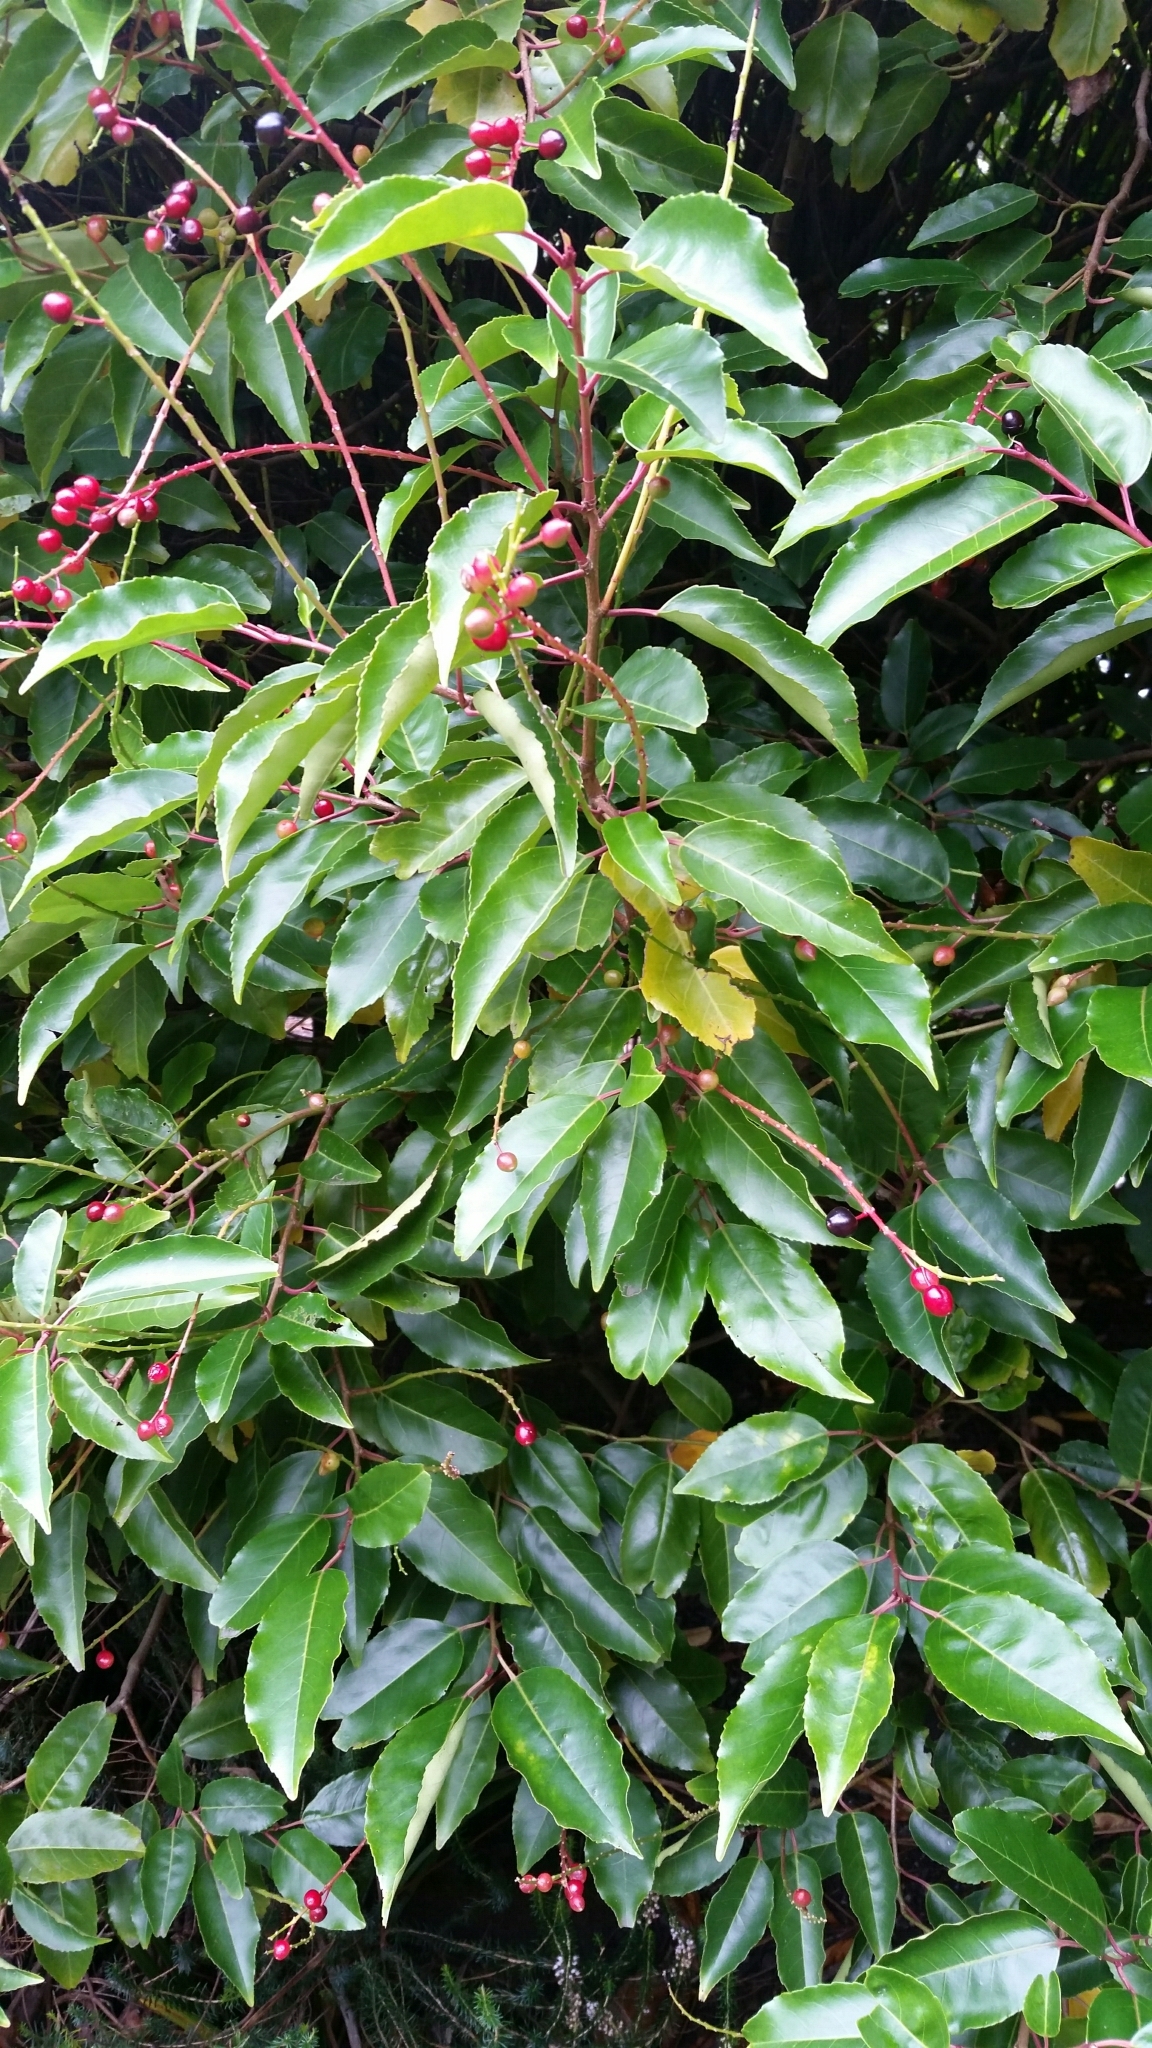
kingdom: Plantae
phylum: Tracheophyta
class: Magnoliopsida
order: Rosales
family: Rosaceae
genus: Prunus
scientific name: Prunus lusitanica
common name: Portugal laurel
